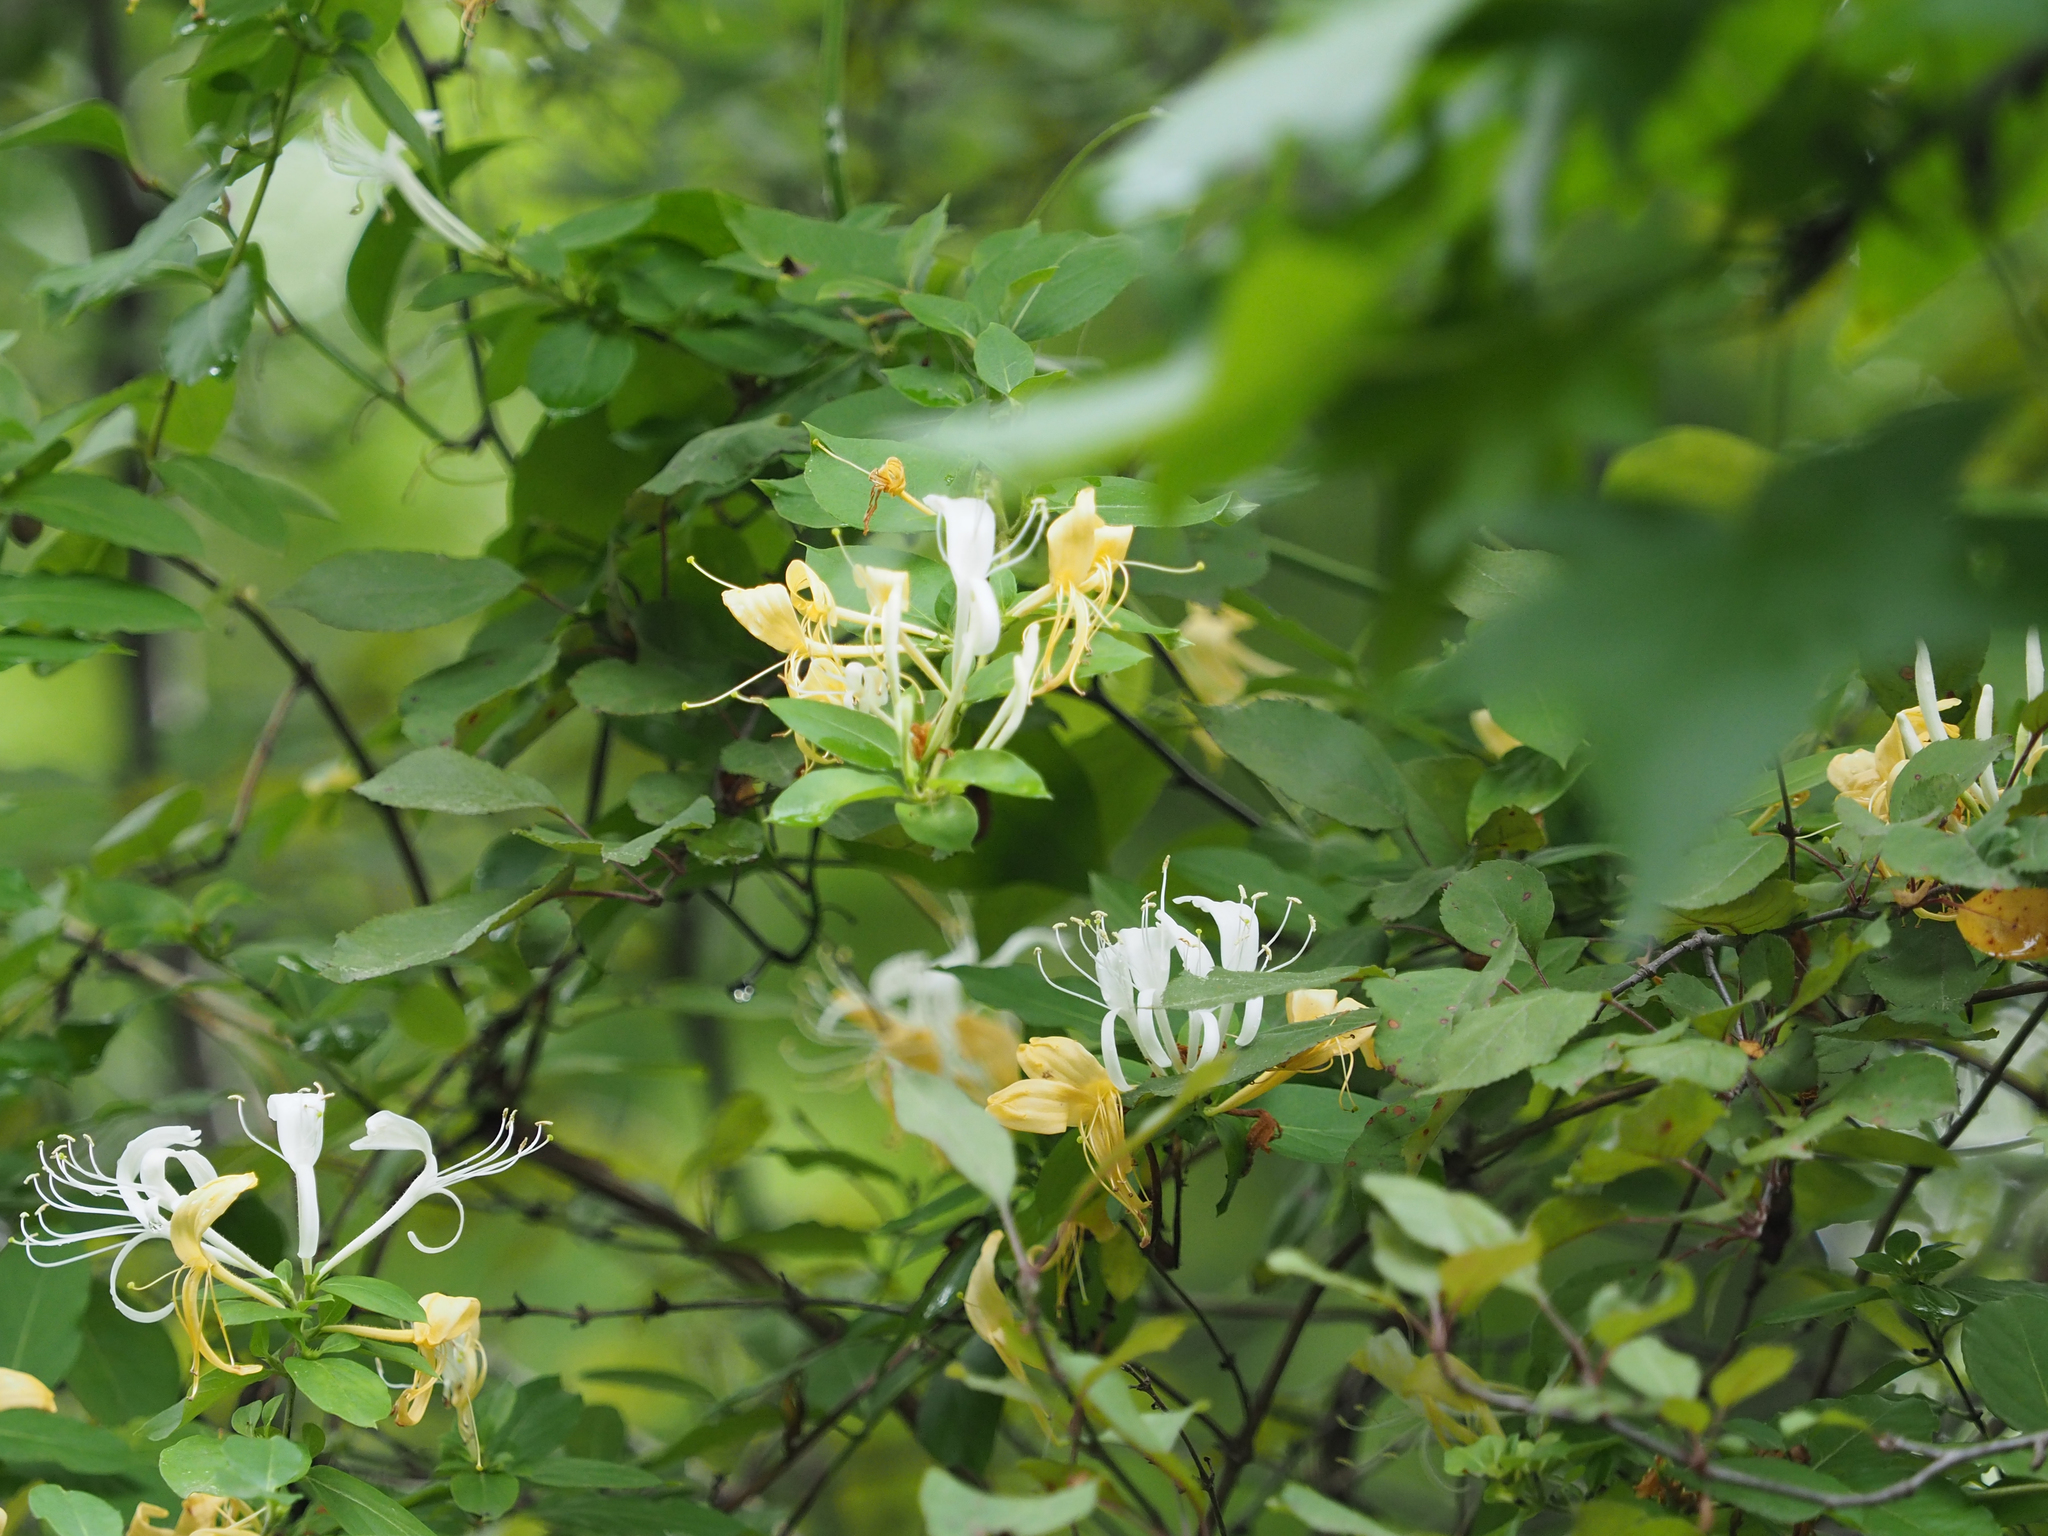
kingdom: Plantae
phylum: Tracheophyta
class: Magnoliopsida
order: Dipsacales
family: Caprifoliaceae
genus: Lonicera
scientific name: Lonicera japonica
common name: Japanese honeysuckle
